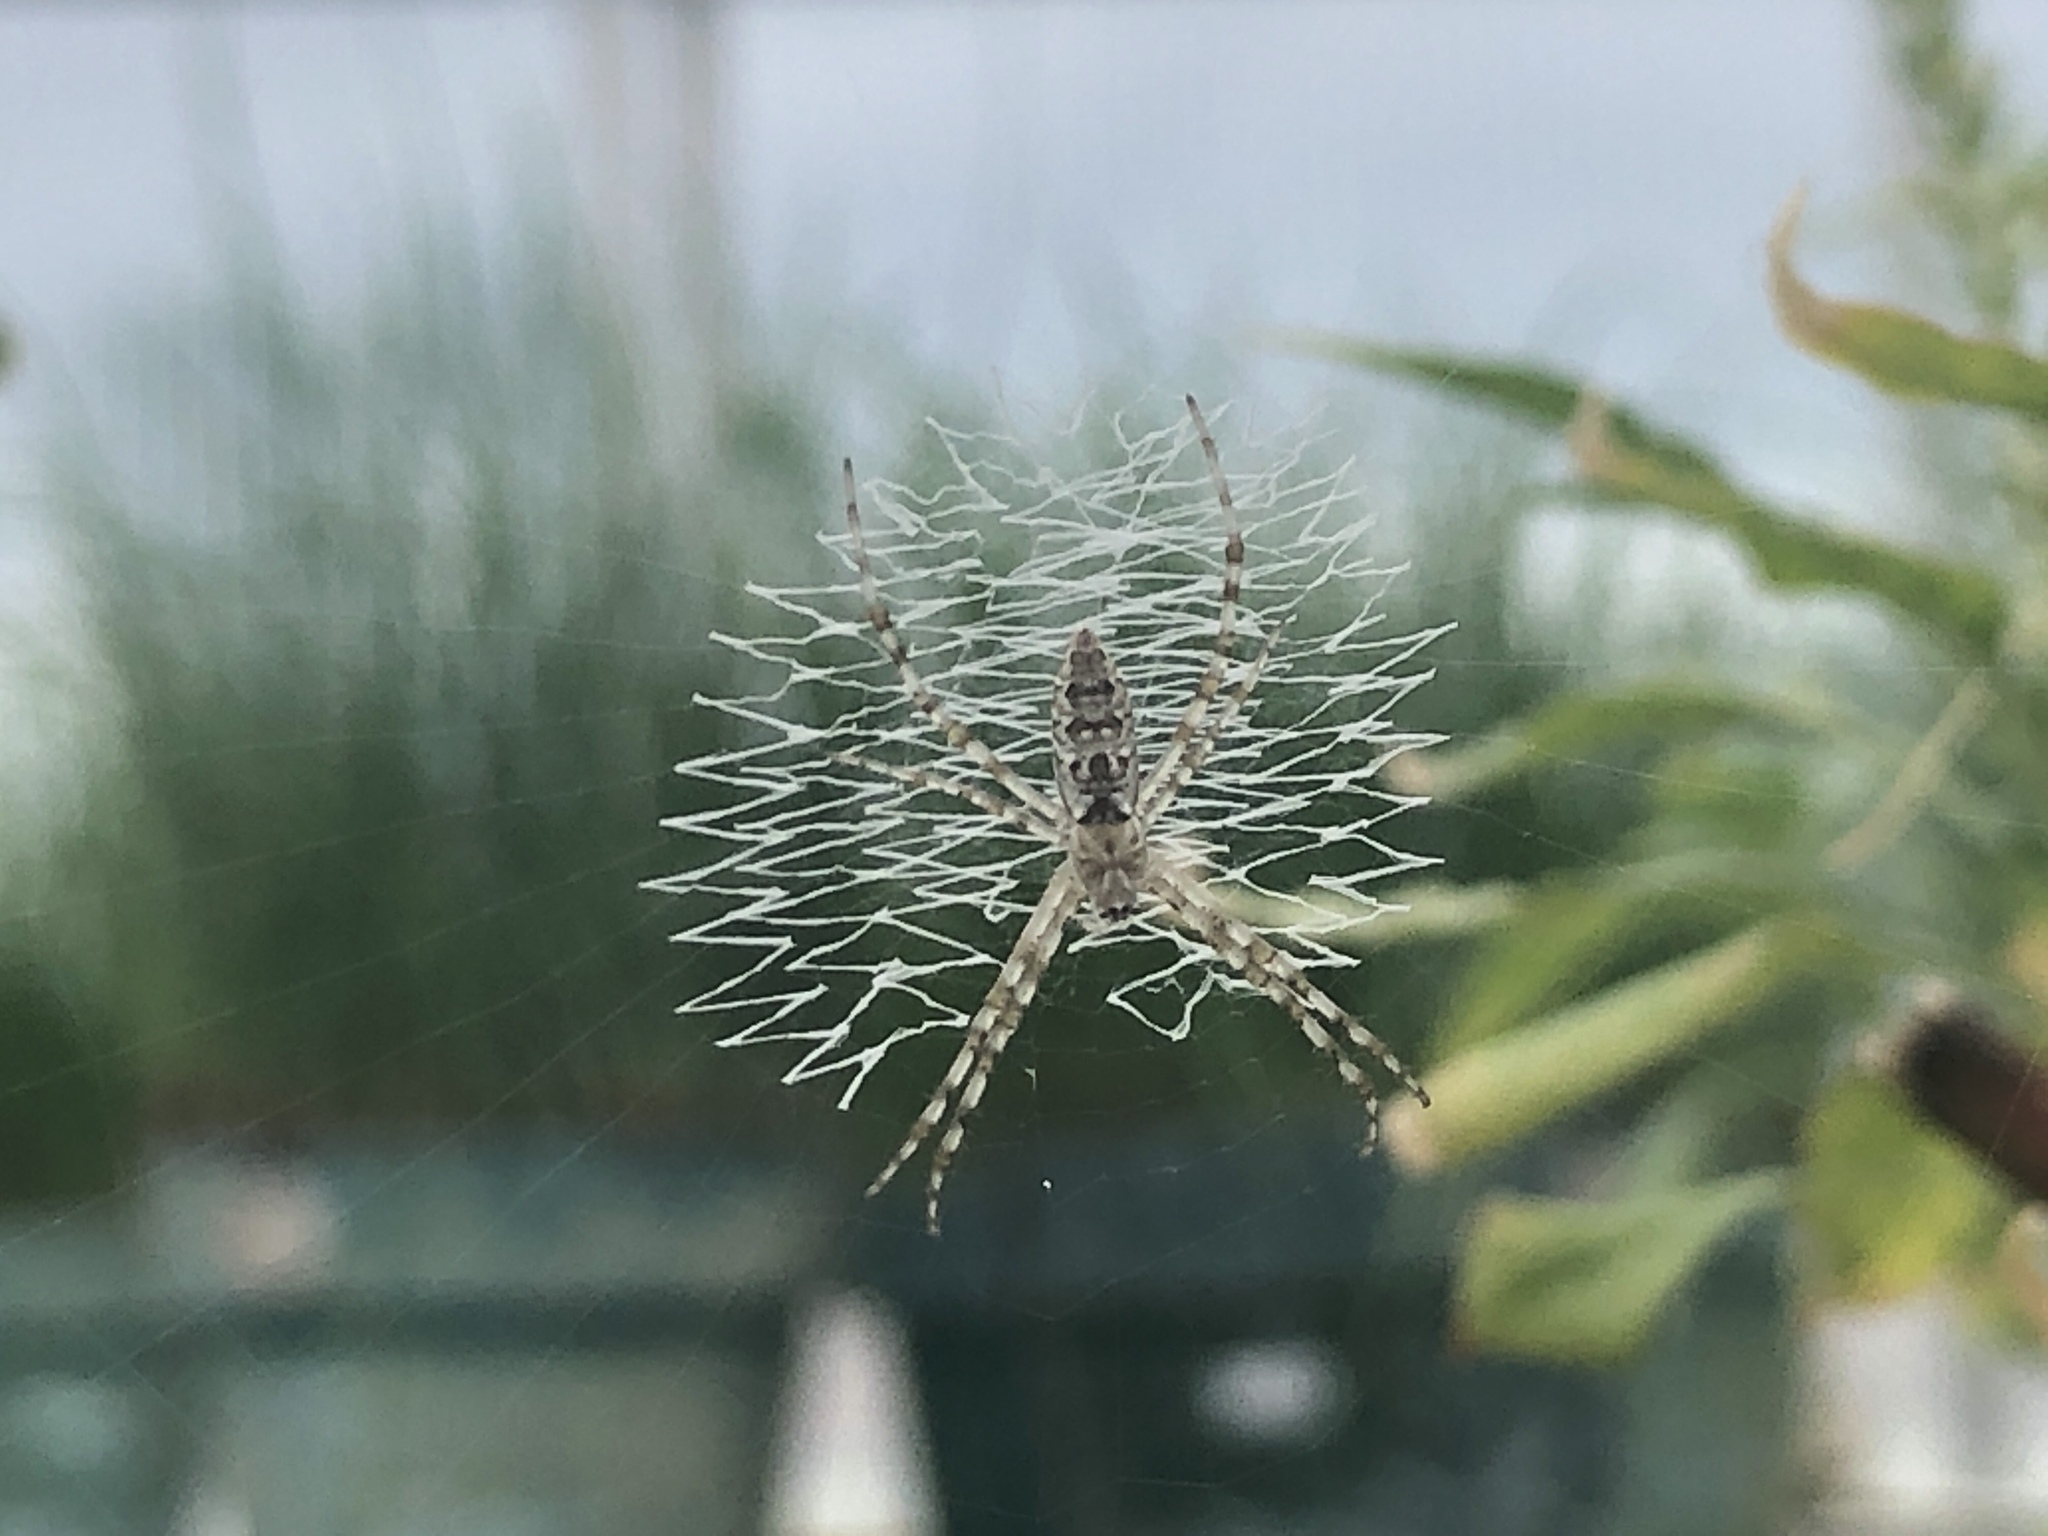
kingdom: Animalia
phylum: Arthropoda
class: Arachnida
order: Araneae
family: Araneidae
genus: Argiope
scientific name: Argiope aurantia
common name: Orb weavers
